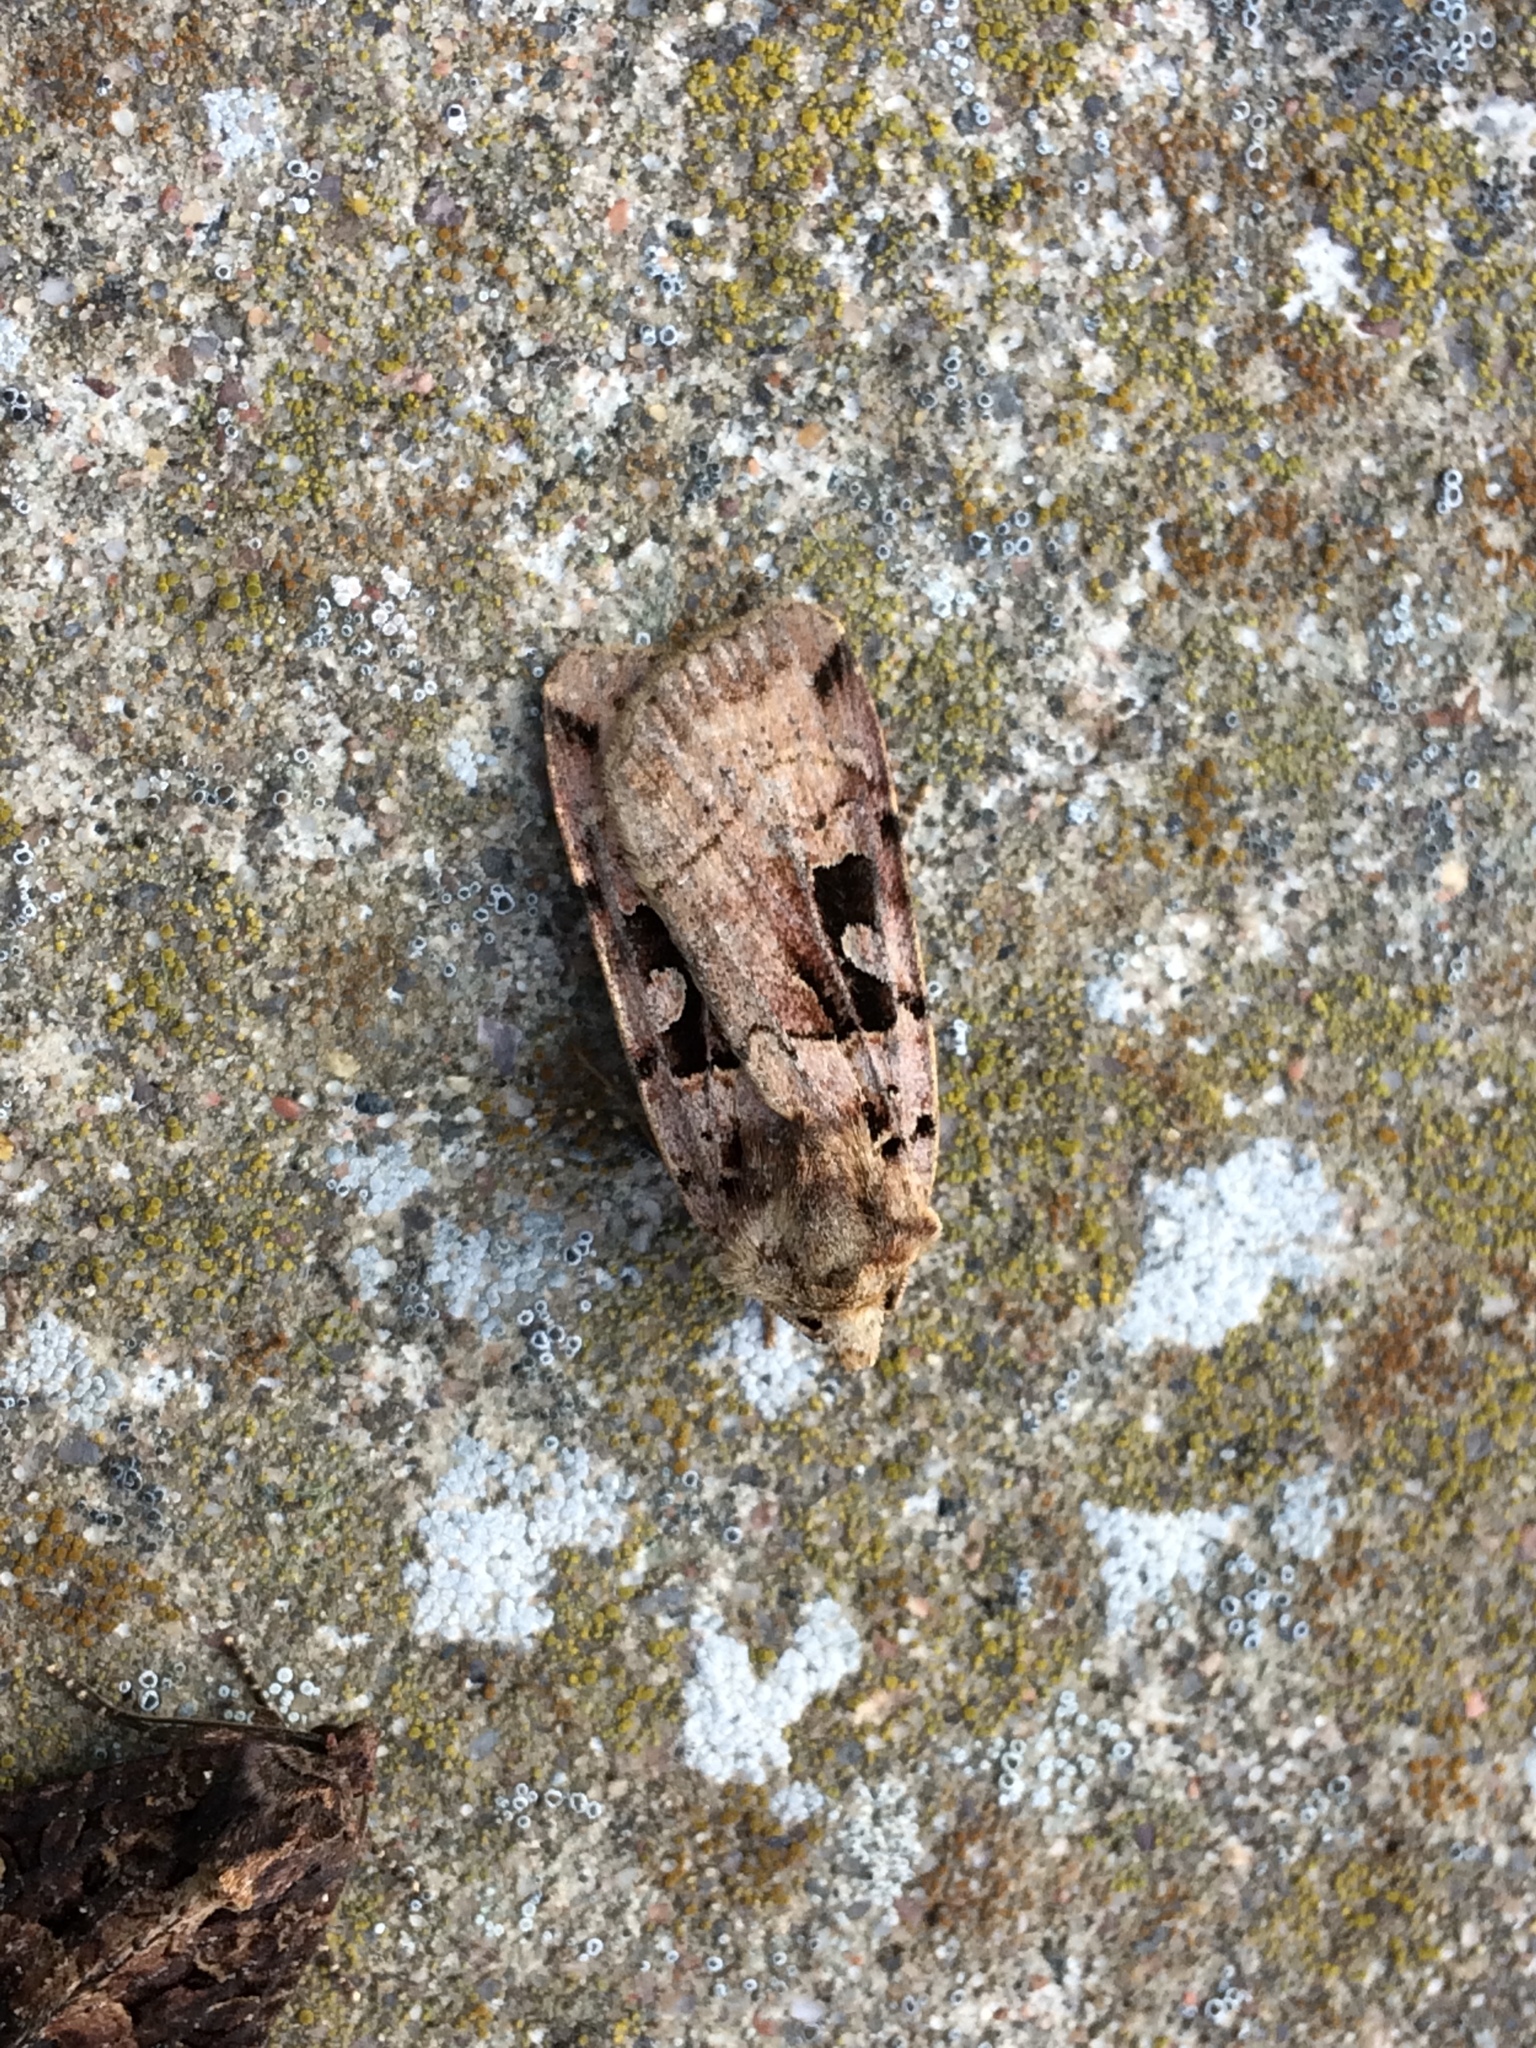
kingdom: Animalia
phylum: Arthropoda
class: Insecta
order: Lepidoptera
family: Noctuidae
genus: Xestia
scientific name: Xestia triangulum
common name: Double square-spot
